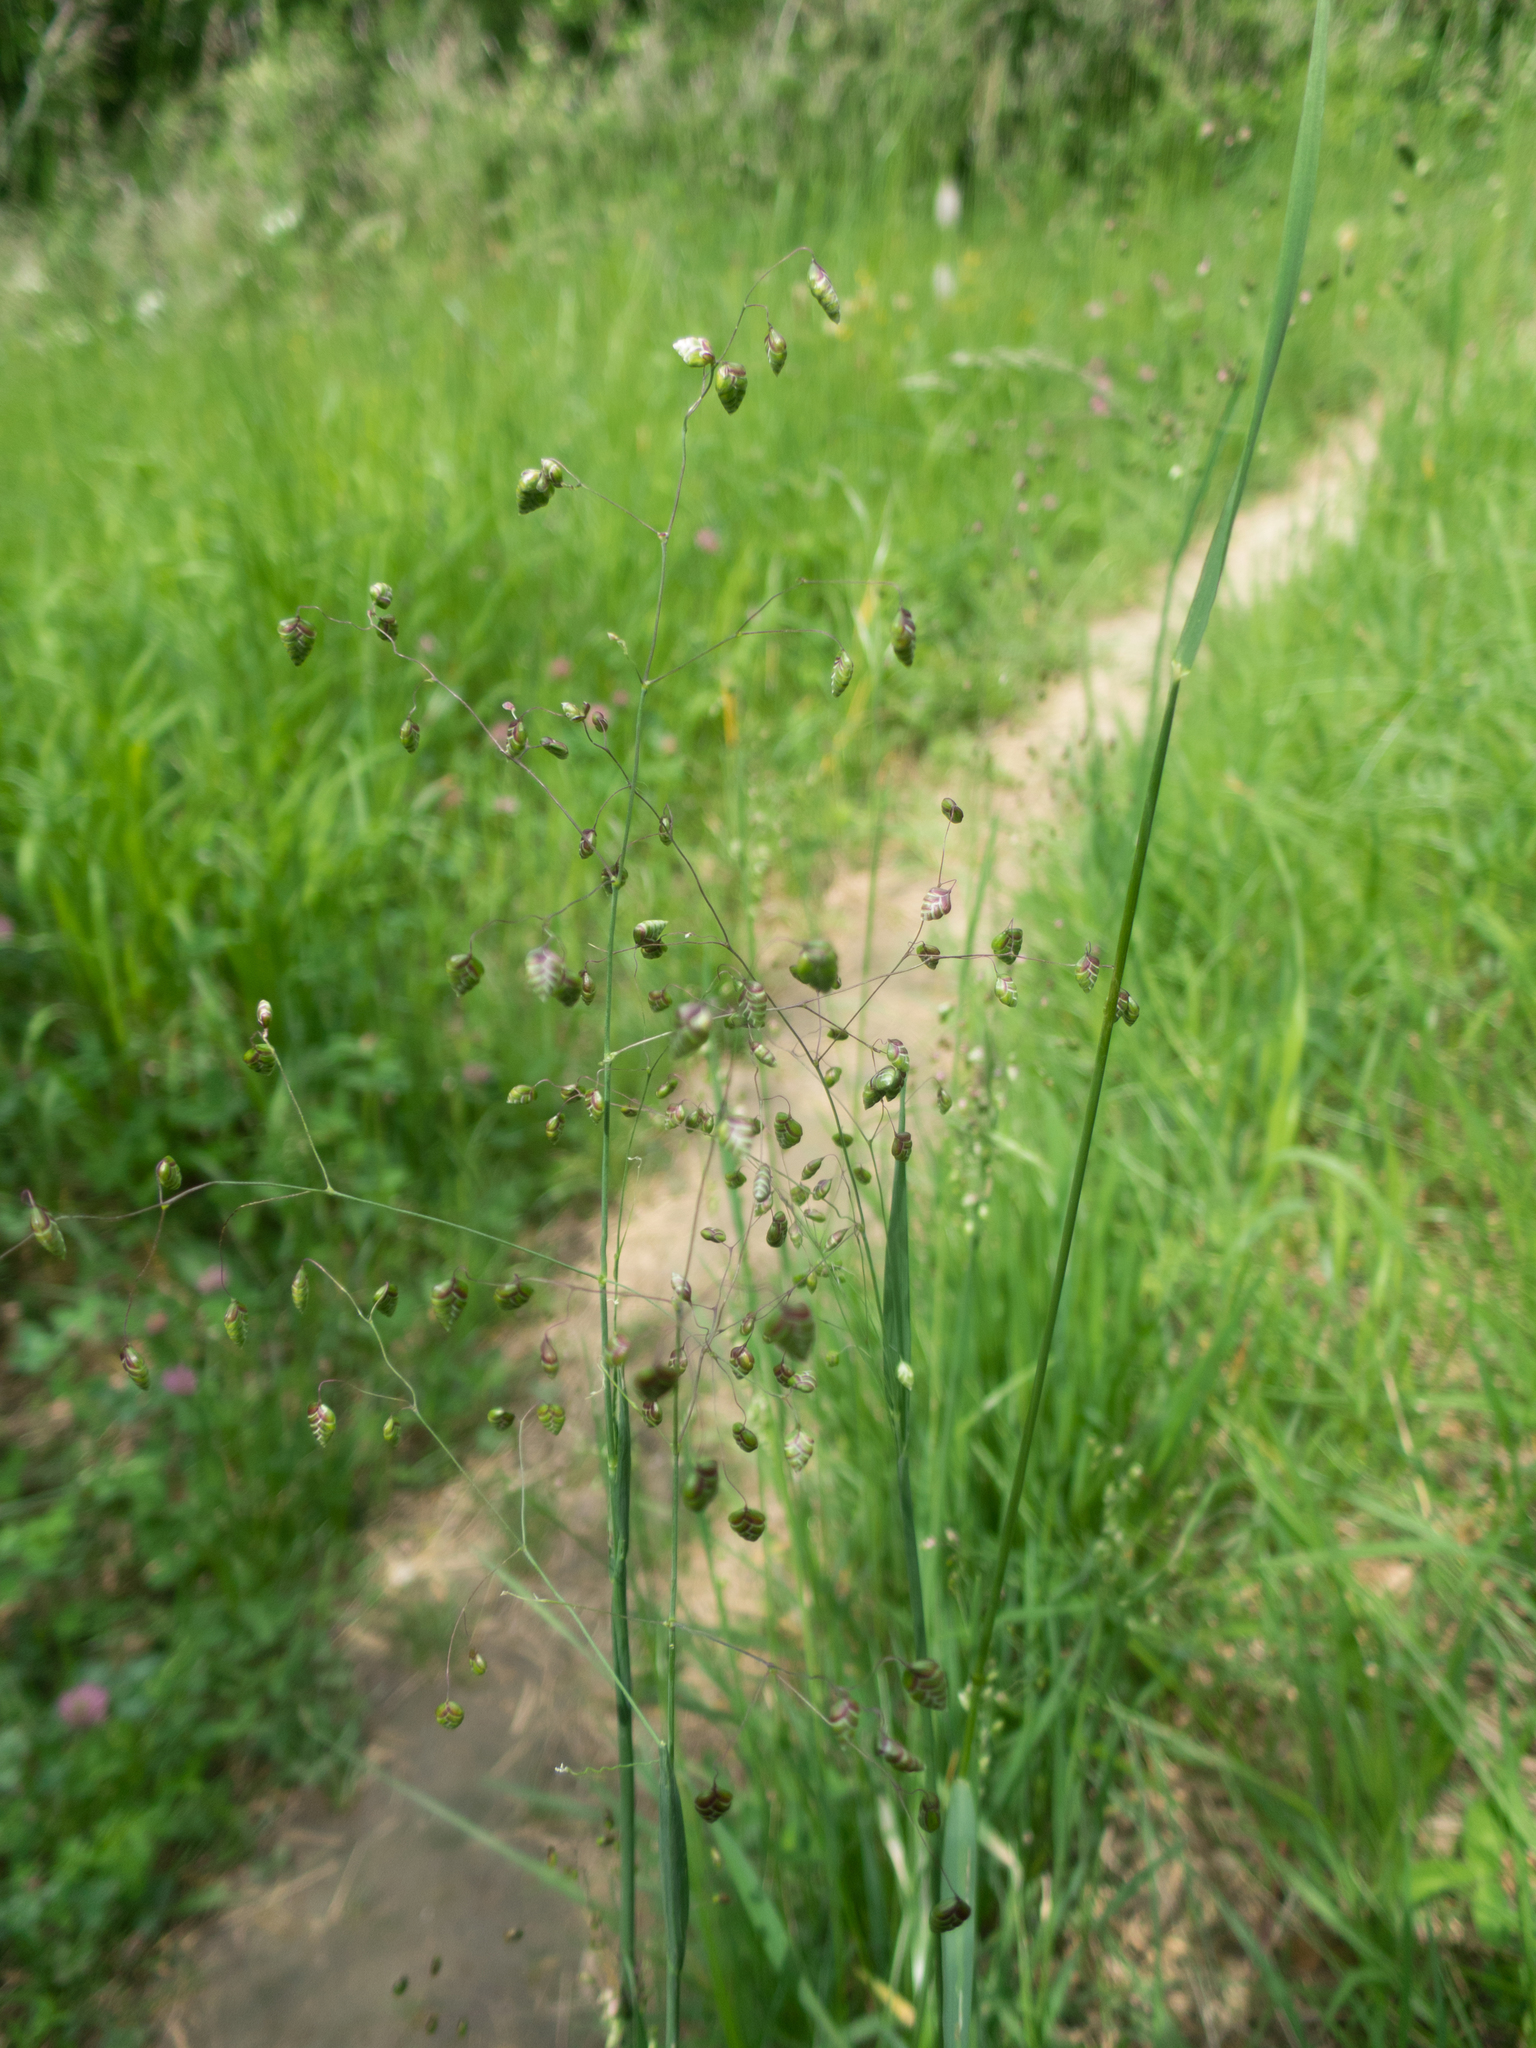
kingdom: Plantae
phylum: Tracheophyta
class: Liliopsida
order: Poales
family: Poaceae
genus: Briza
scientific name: Briza media
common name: Quaking grass
